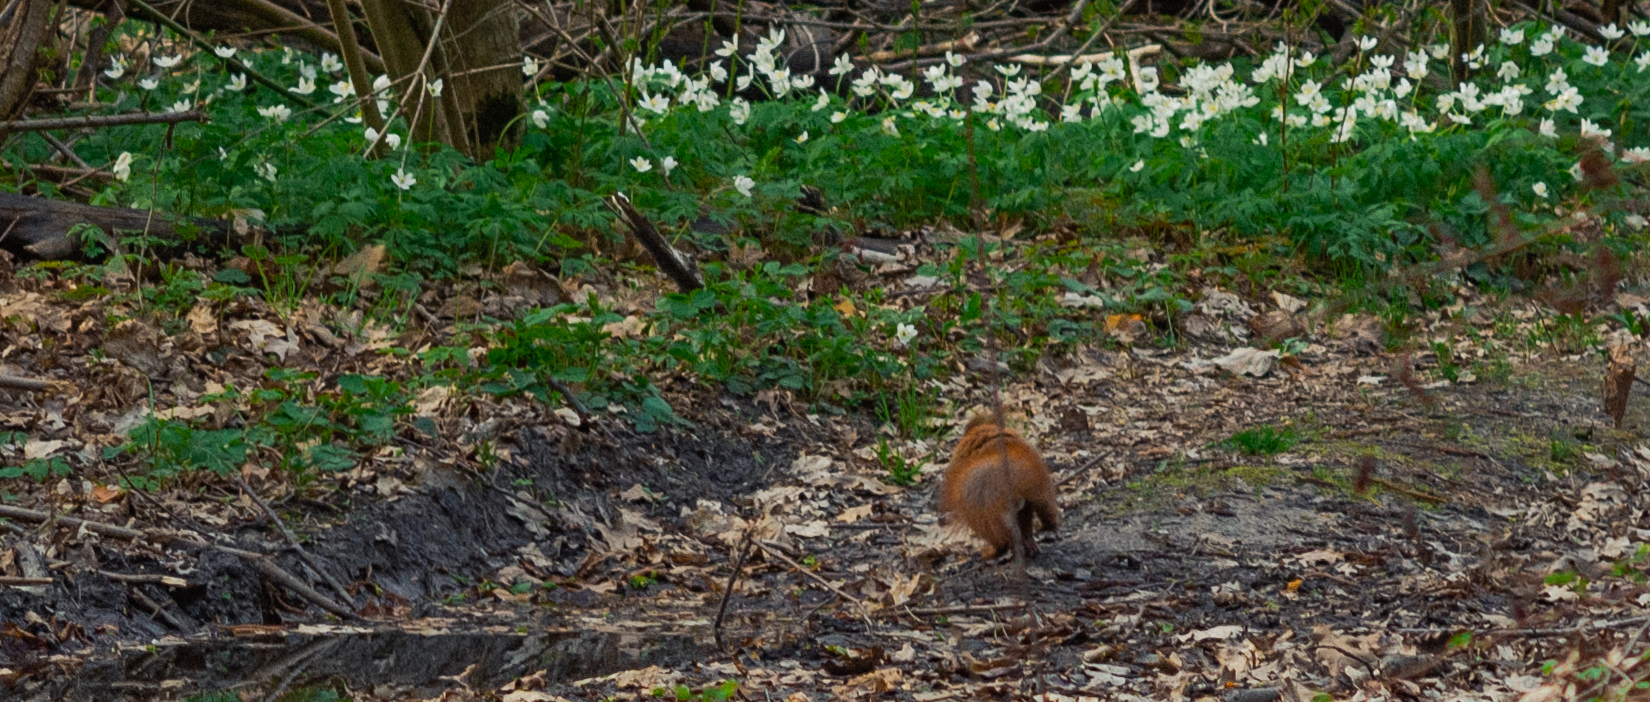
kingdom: Animalia
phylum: Chordata
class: Mammalia
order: Rodentia
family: Sciuridae
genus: Sciurus
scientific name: Sciurus vulgaris
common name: Eurasian red squirrel
